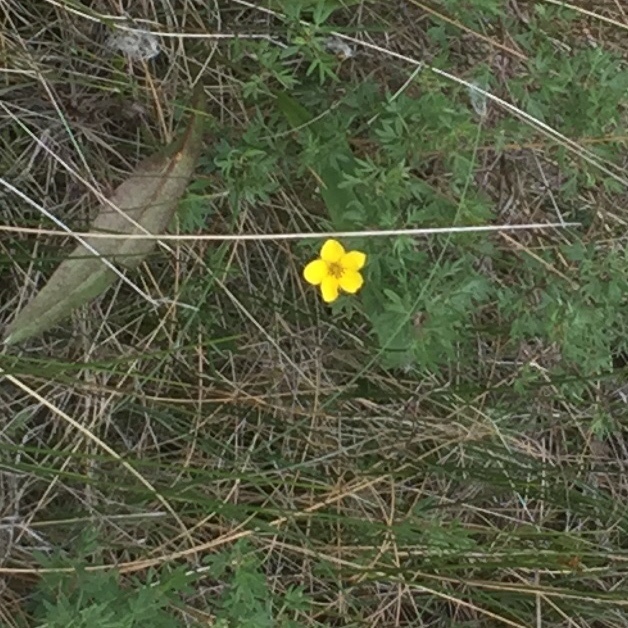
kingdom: Plantae
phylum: Tracheophyta
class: Magnoliopsida
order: Rosales
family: Rosaceae
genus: Dasiphora
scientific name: Dasiphora fruticosa
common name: Shrubby cinquefoil
